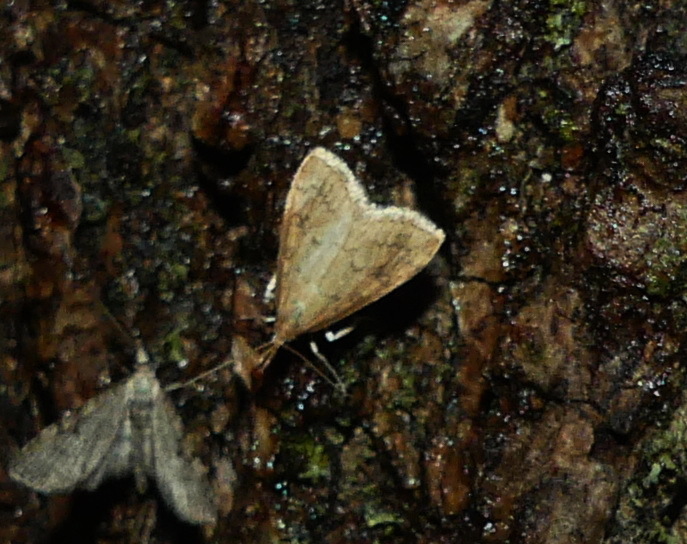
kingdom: Animalia
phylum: Arthropoda
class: Insecta
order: Lepidoptera
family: Crambidae
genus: Udea
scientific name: Udea rubigalis
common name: Celery leaftier moth
